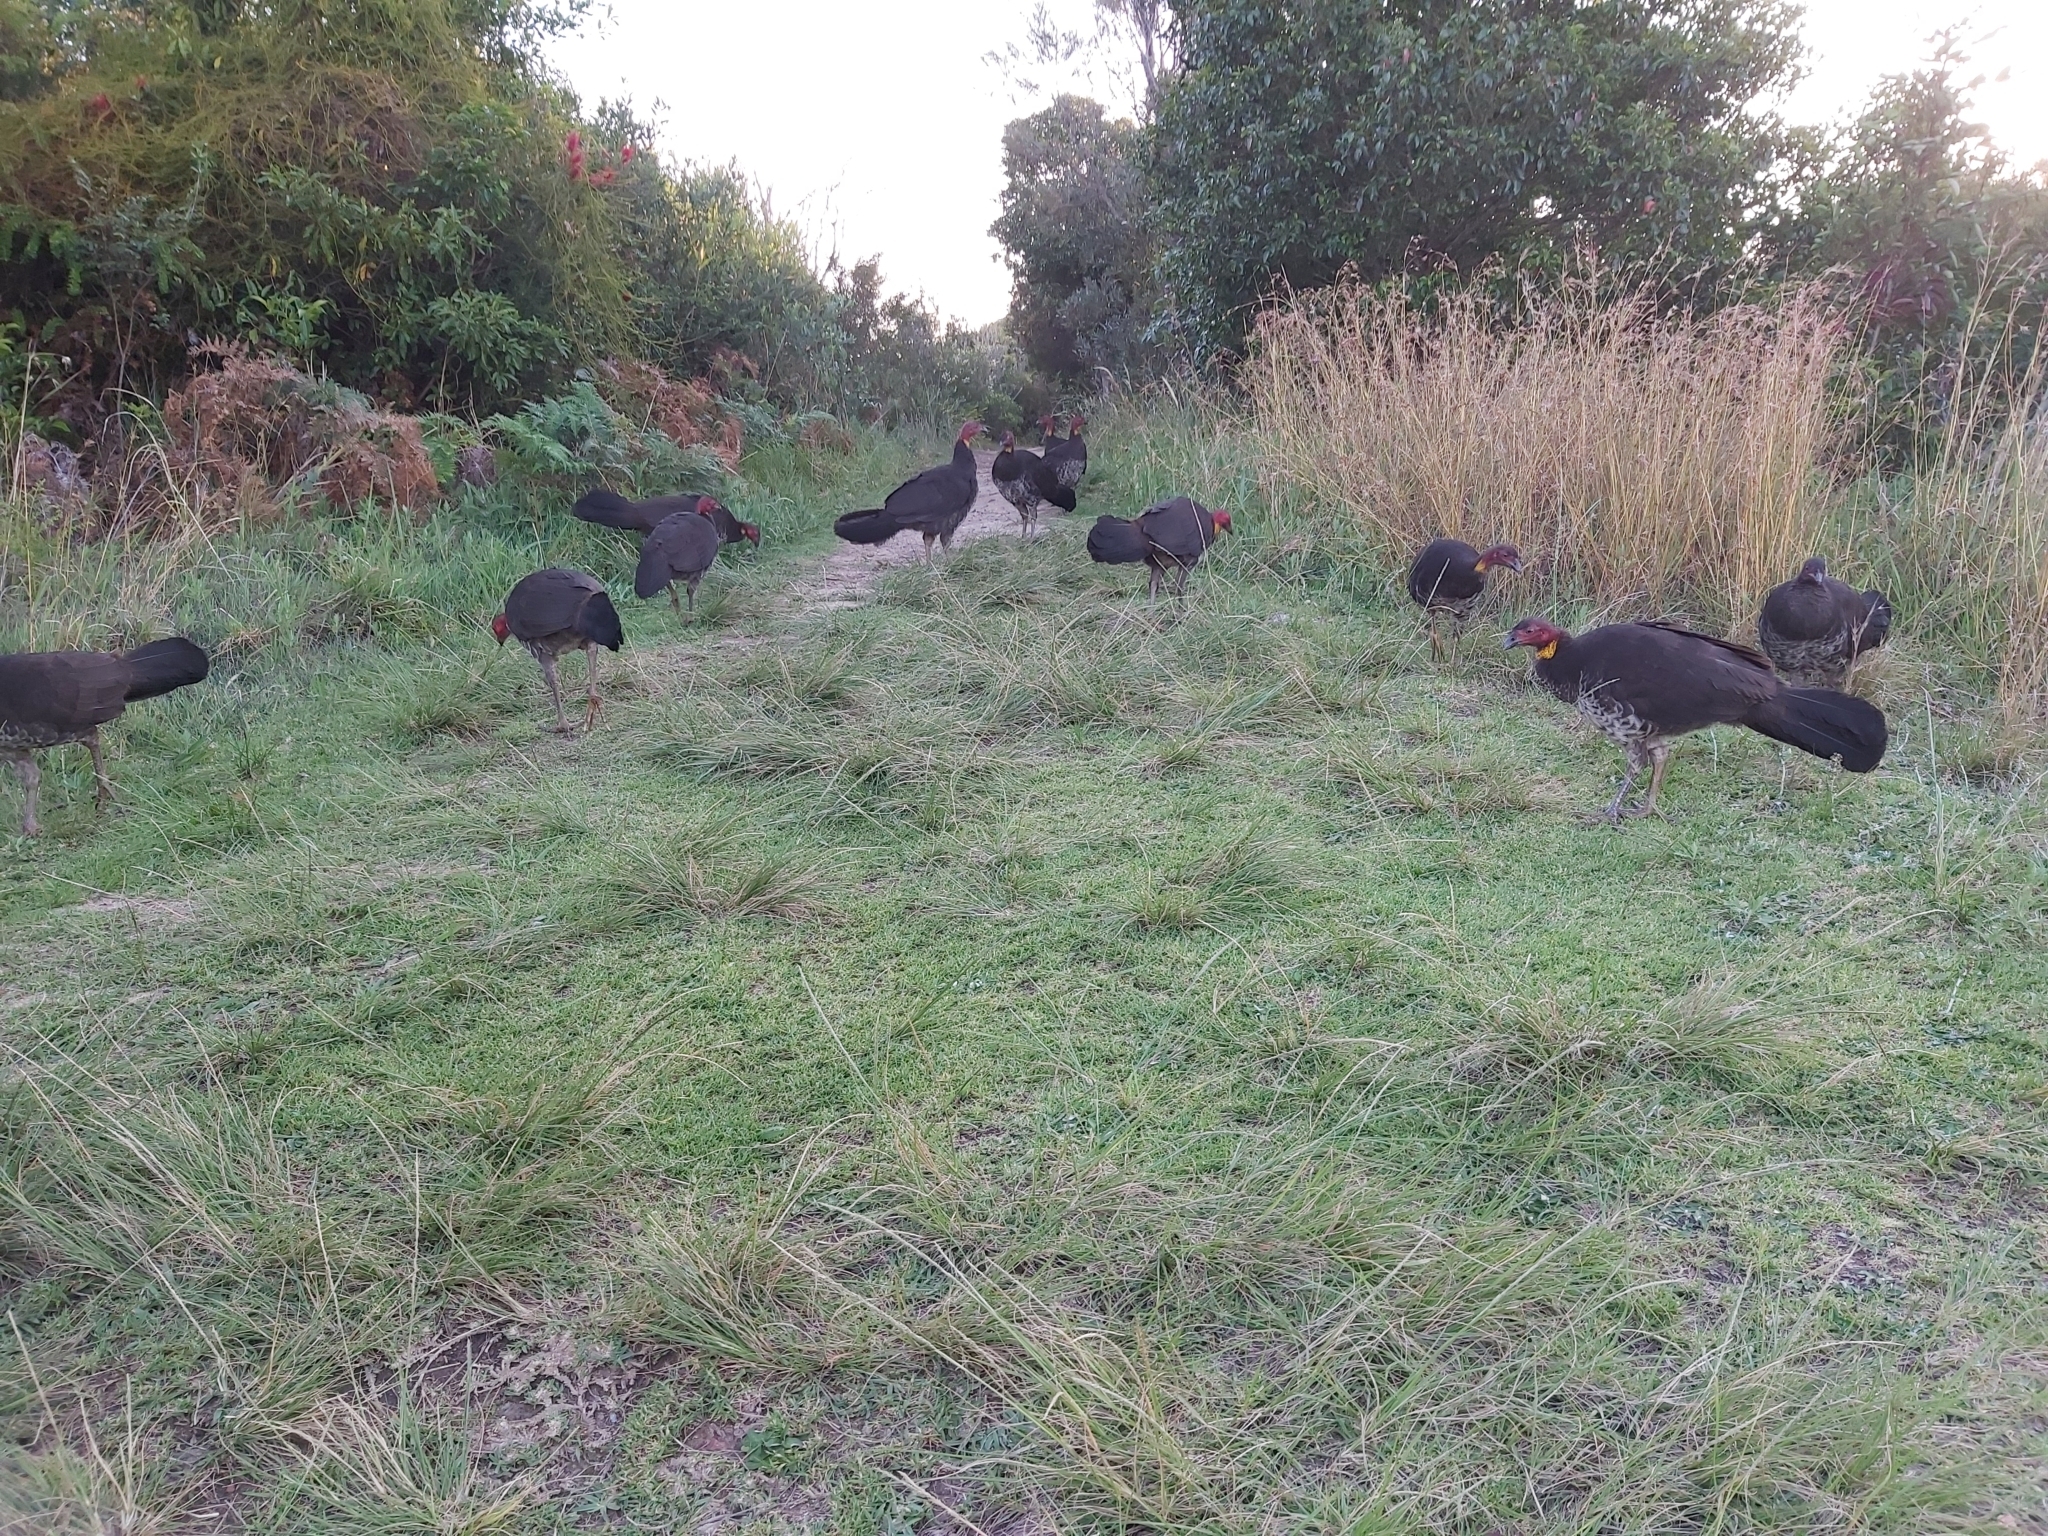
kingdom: Animalia
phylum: Chordata
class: Aves
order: Galliformes
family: Megapodiidae
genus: Alectura
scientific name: Alectura lathami
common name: Australian brushturkey
